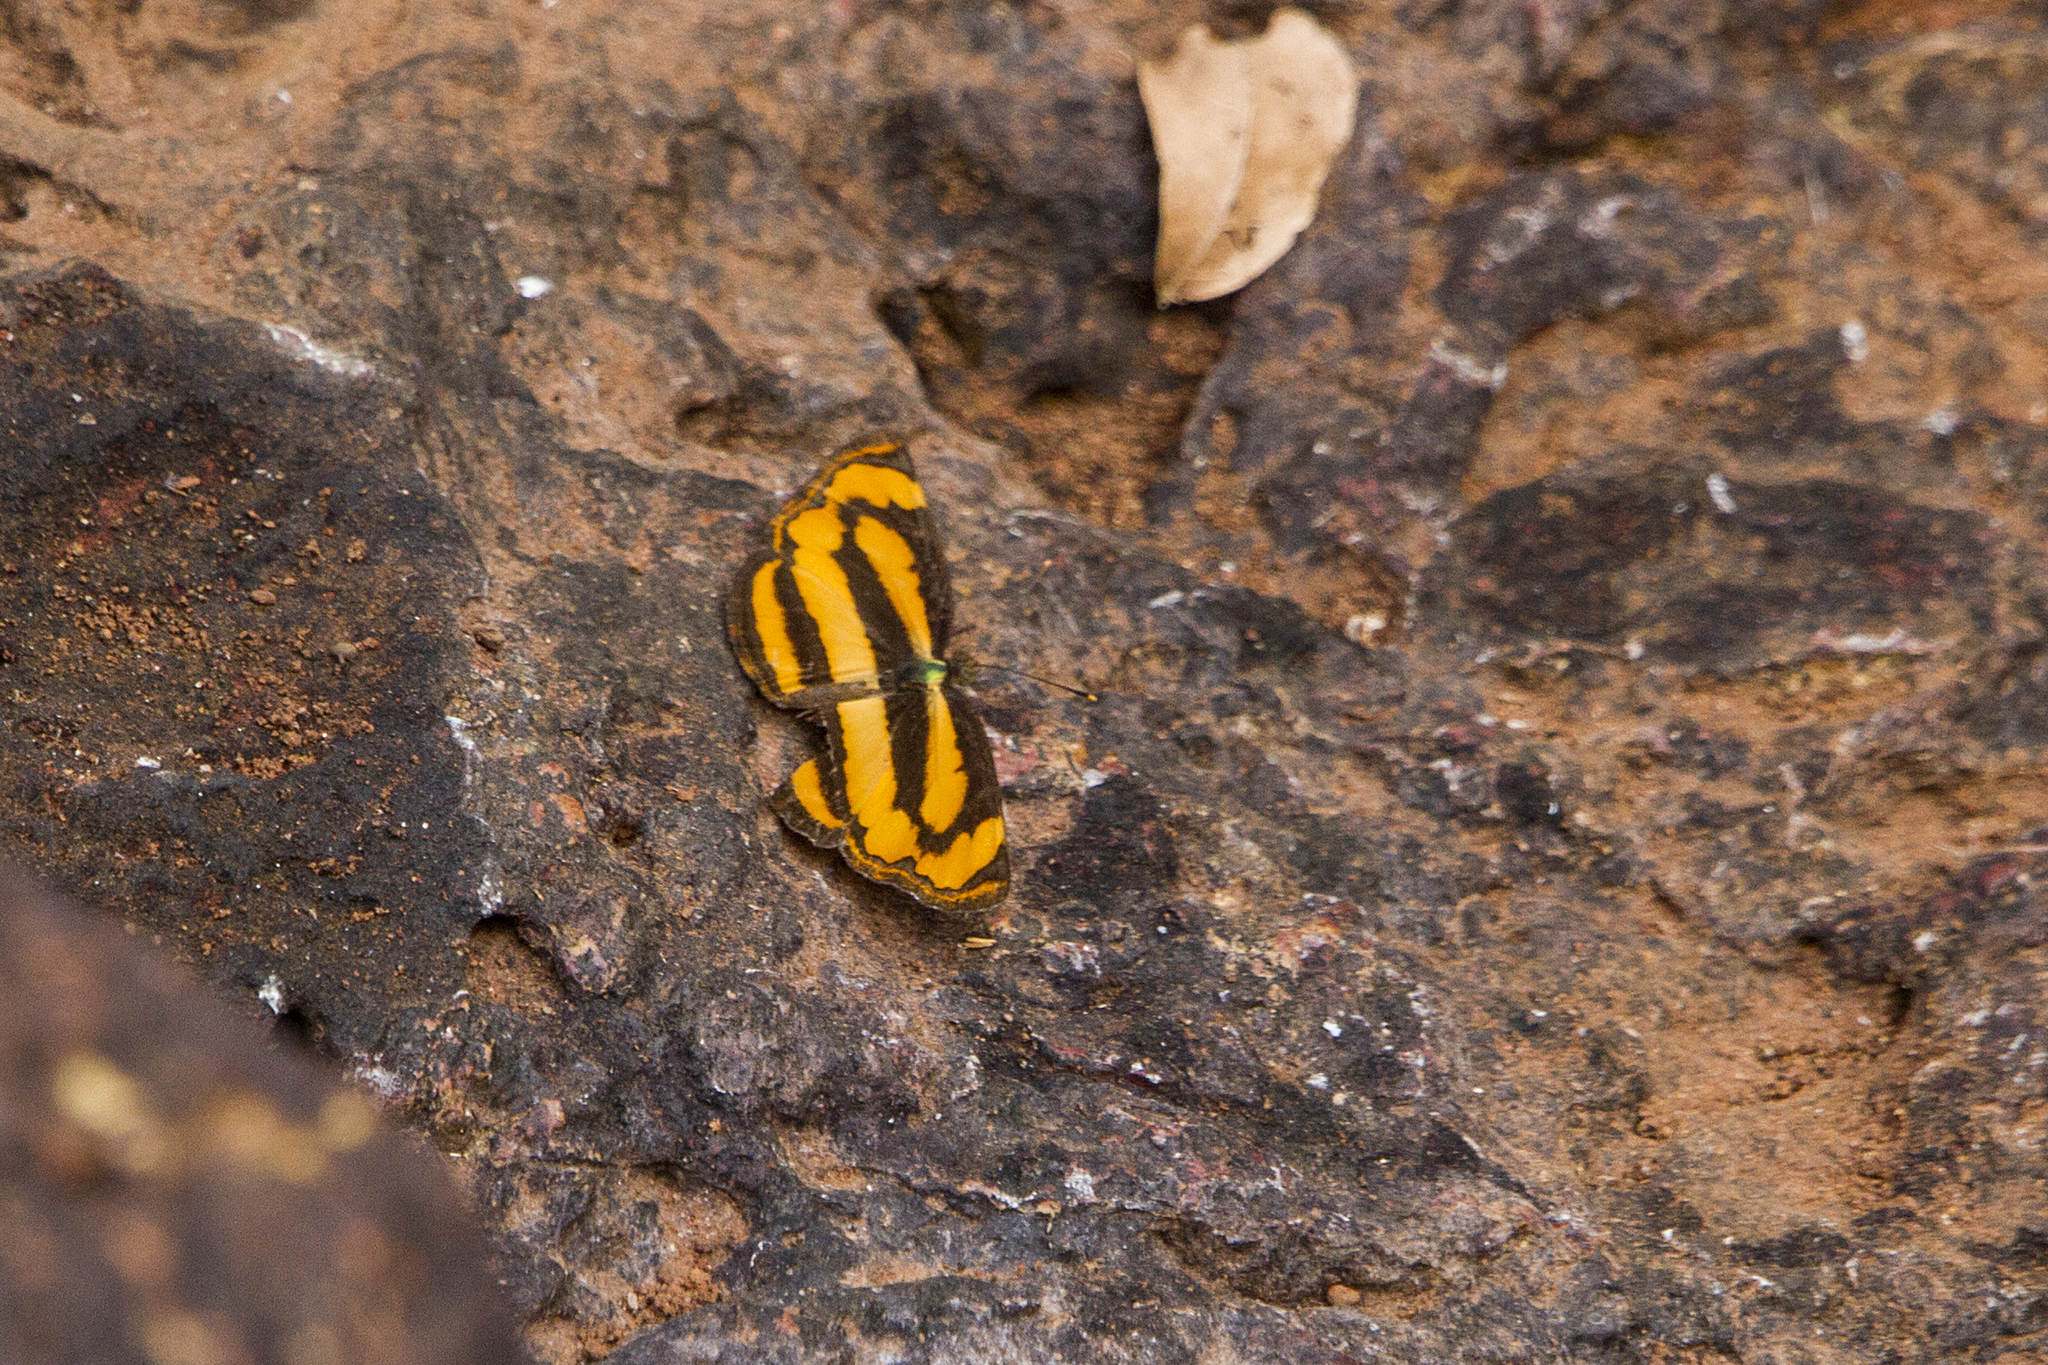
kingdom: Animalia
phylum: Arthropoda
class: Insecta
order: Lepidoptera
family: Nymphalidae
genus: Pantoporia
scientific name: Pantoporia hordonia
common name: Common lascar
